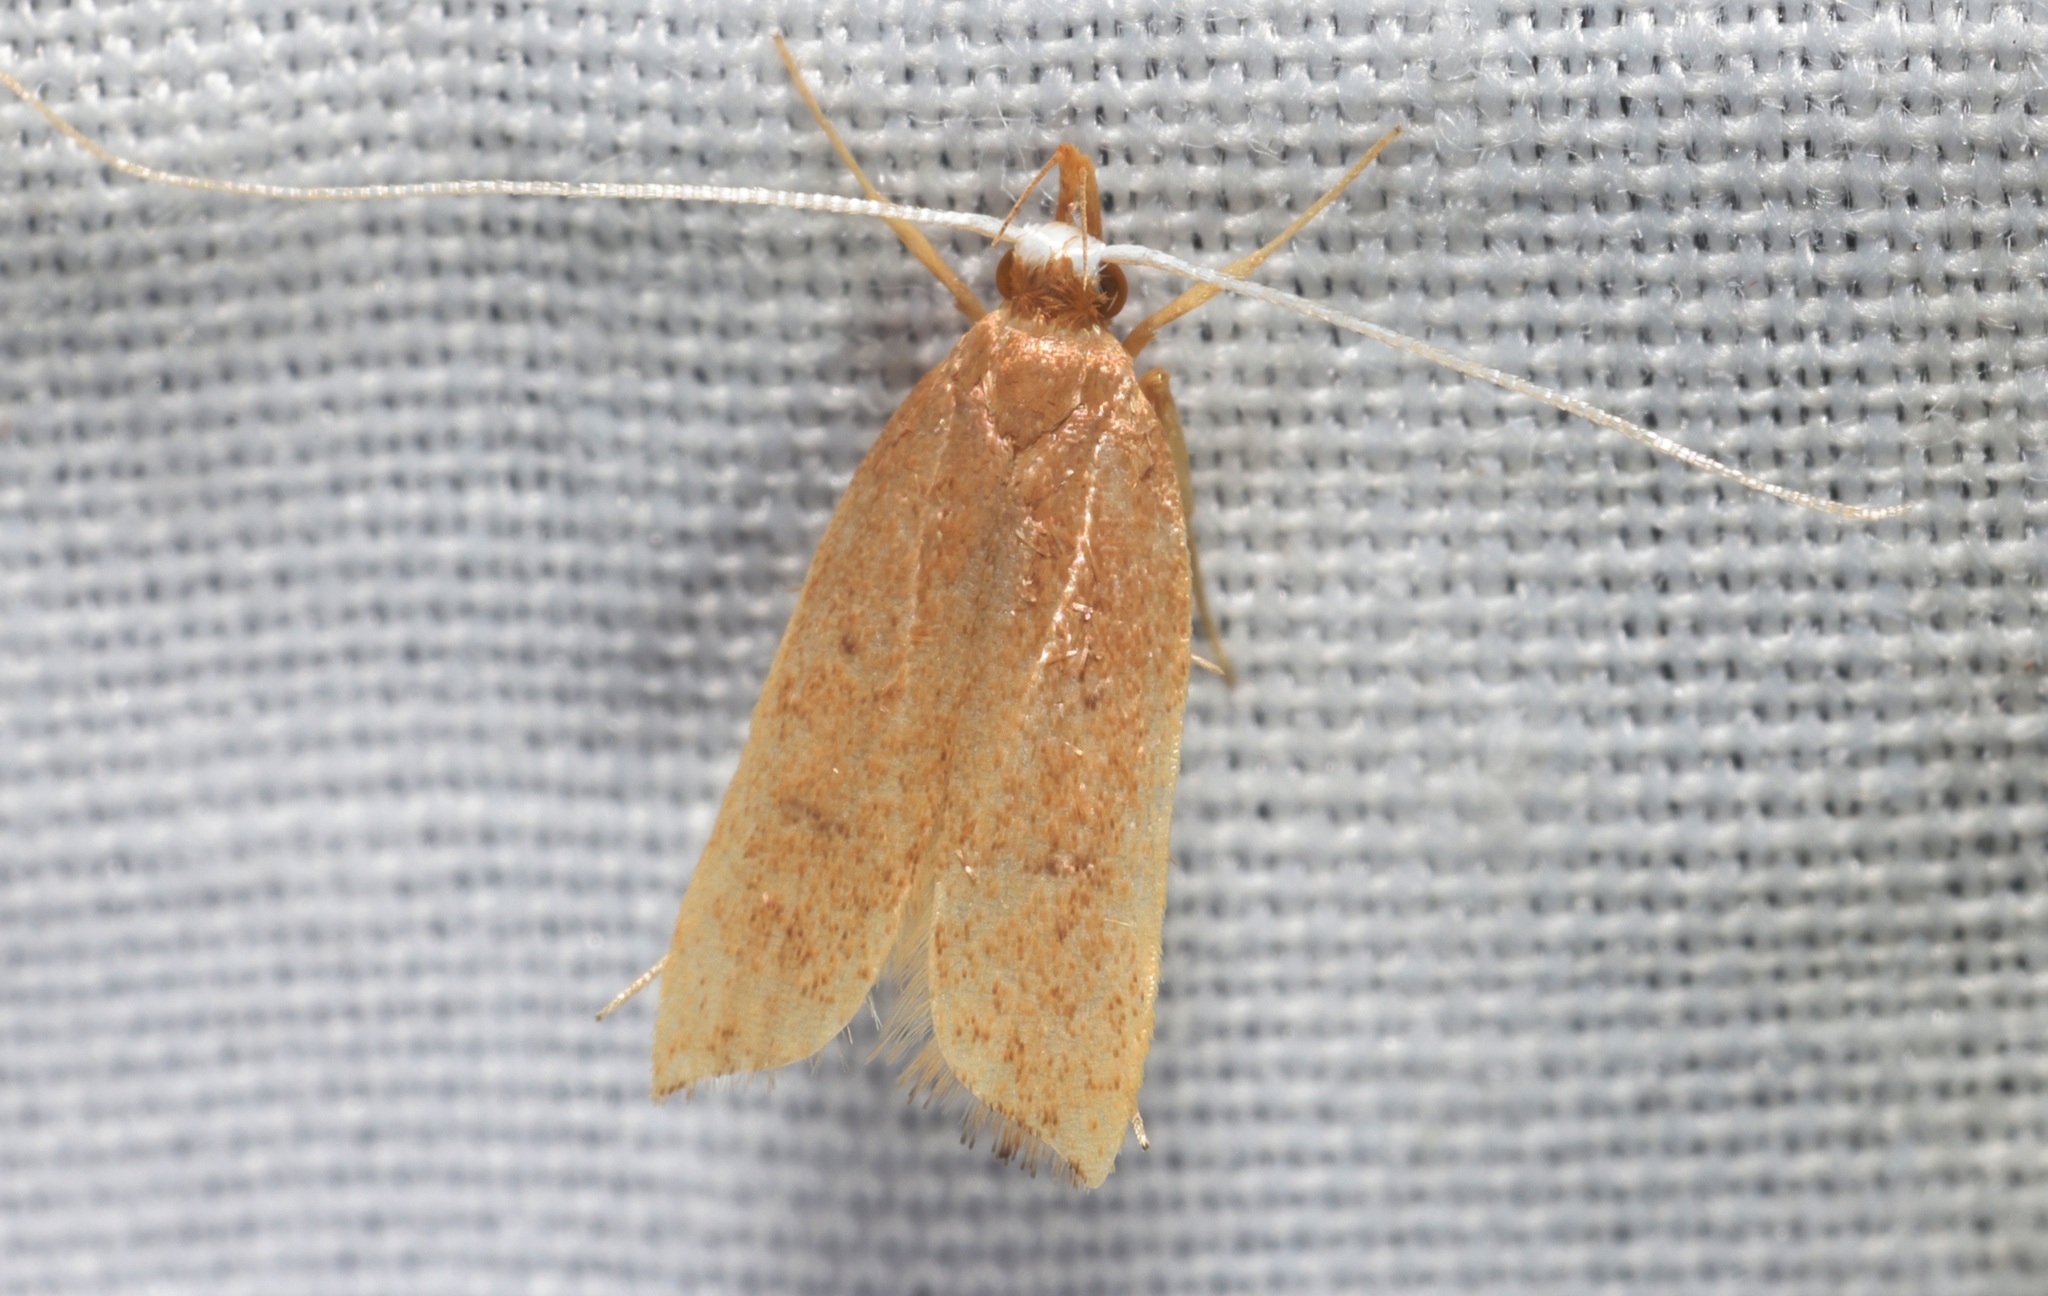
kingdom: Animalia
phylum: Arthropoda
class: Insecta
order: Lepidoptera
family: Lecithoceridae
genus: Lecitholaxa
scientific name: Lecitholaxa thiodora
